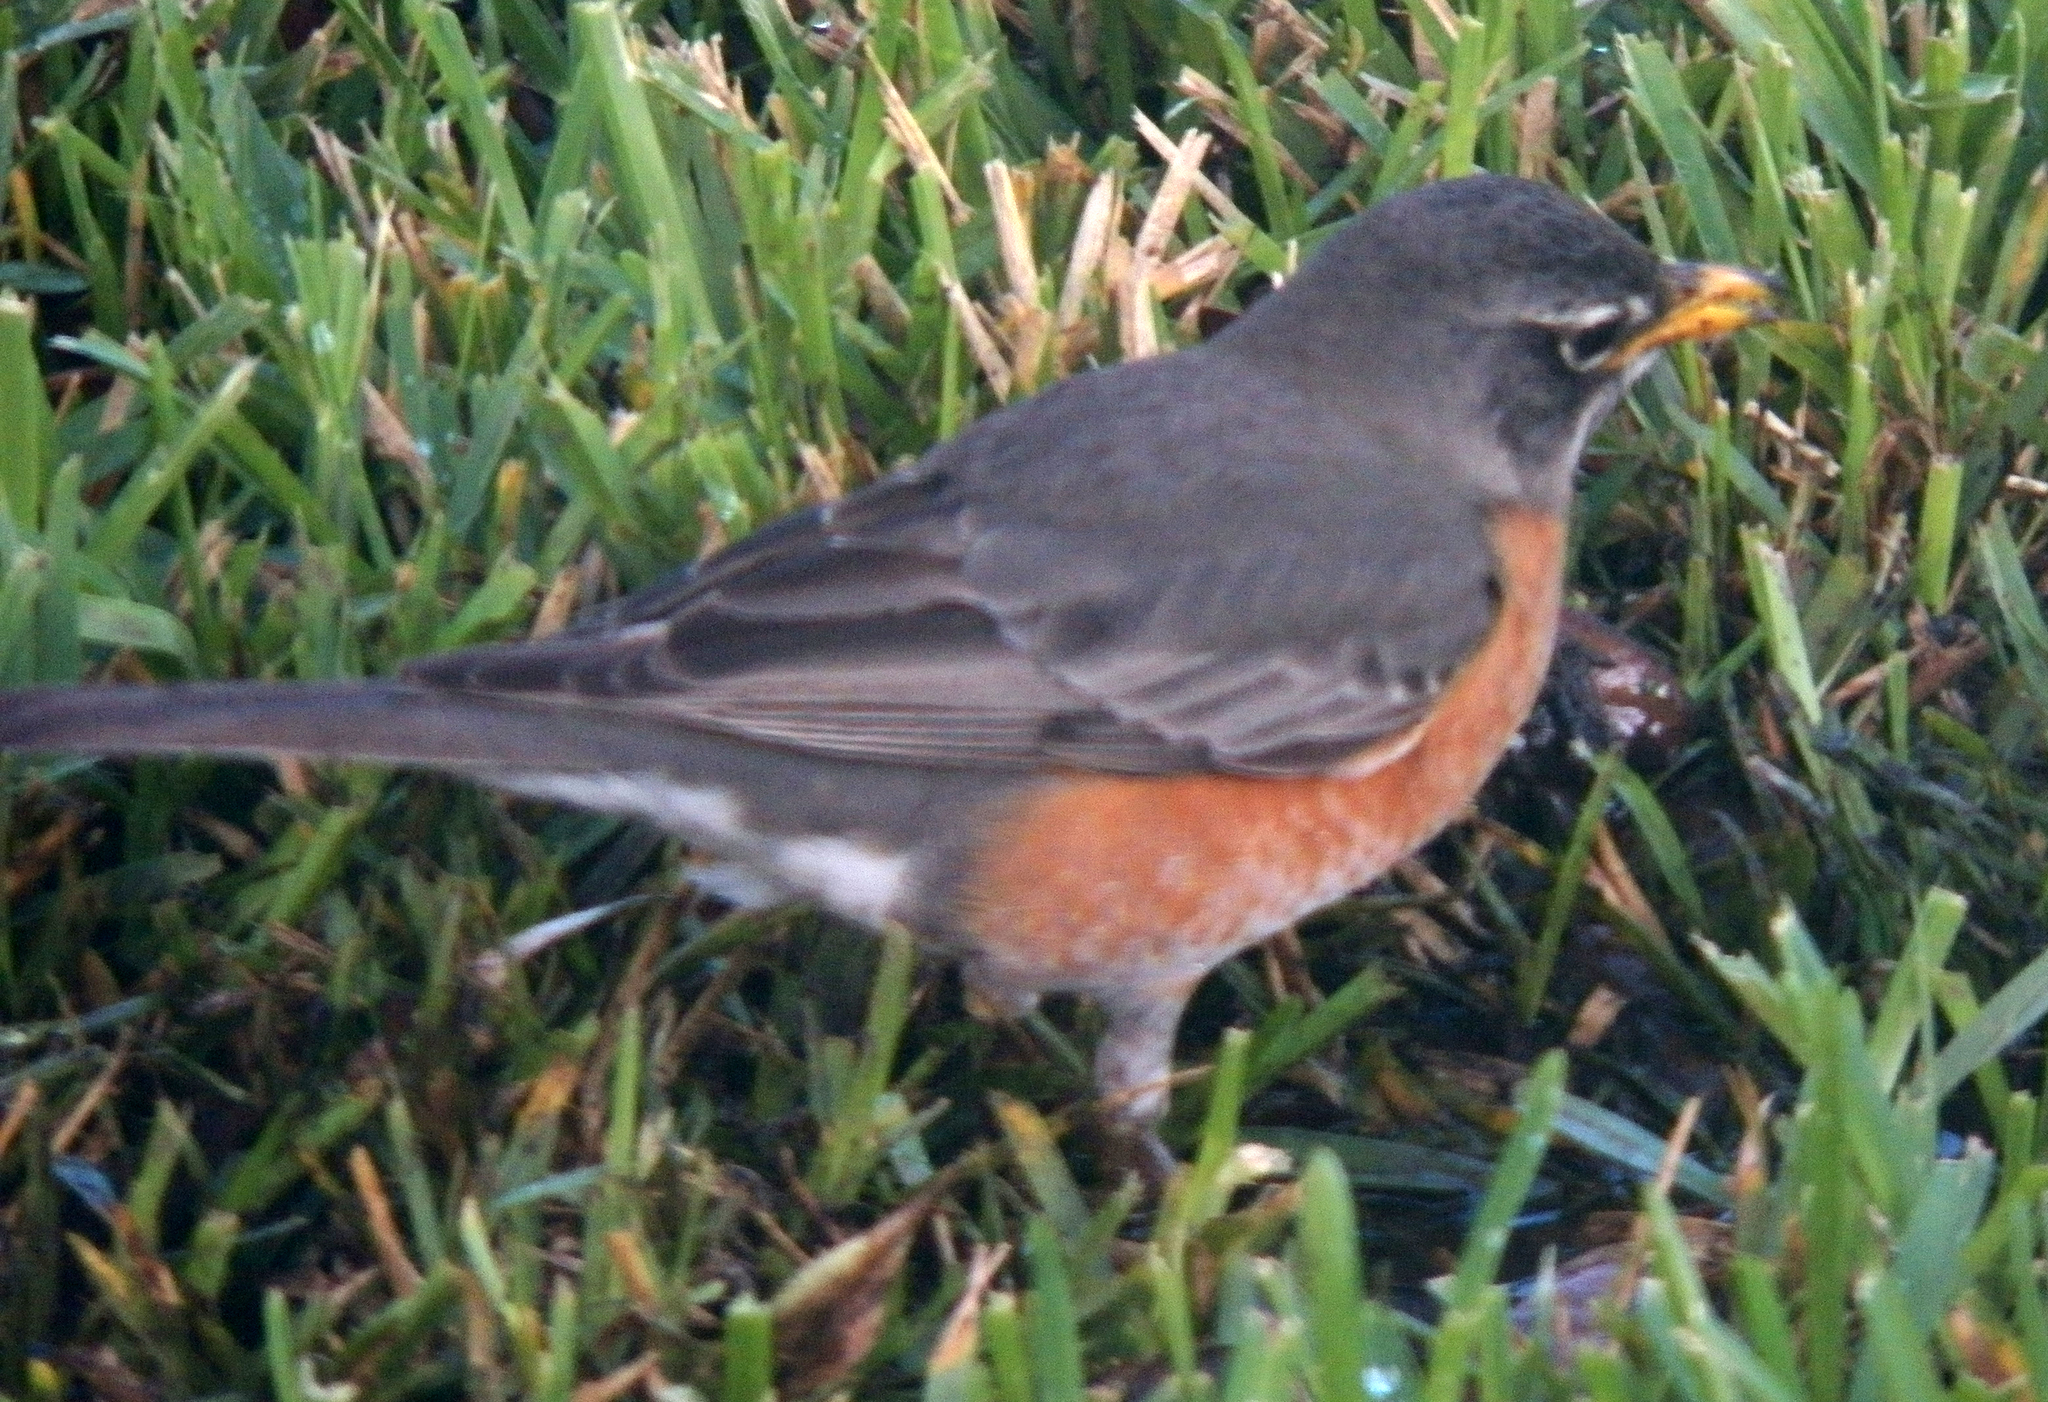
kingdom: Animalia
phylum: Chordata
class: Aves
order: Passeriformes
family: Turdidae
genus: Turdus
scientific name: Turdus migratorius
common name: American robin
